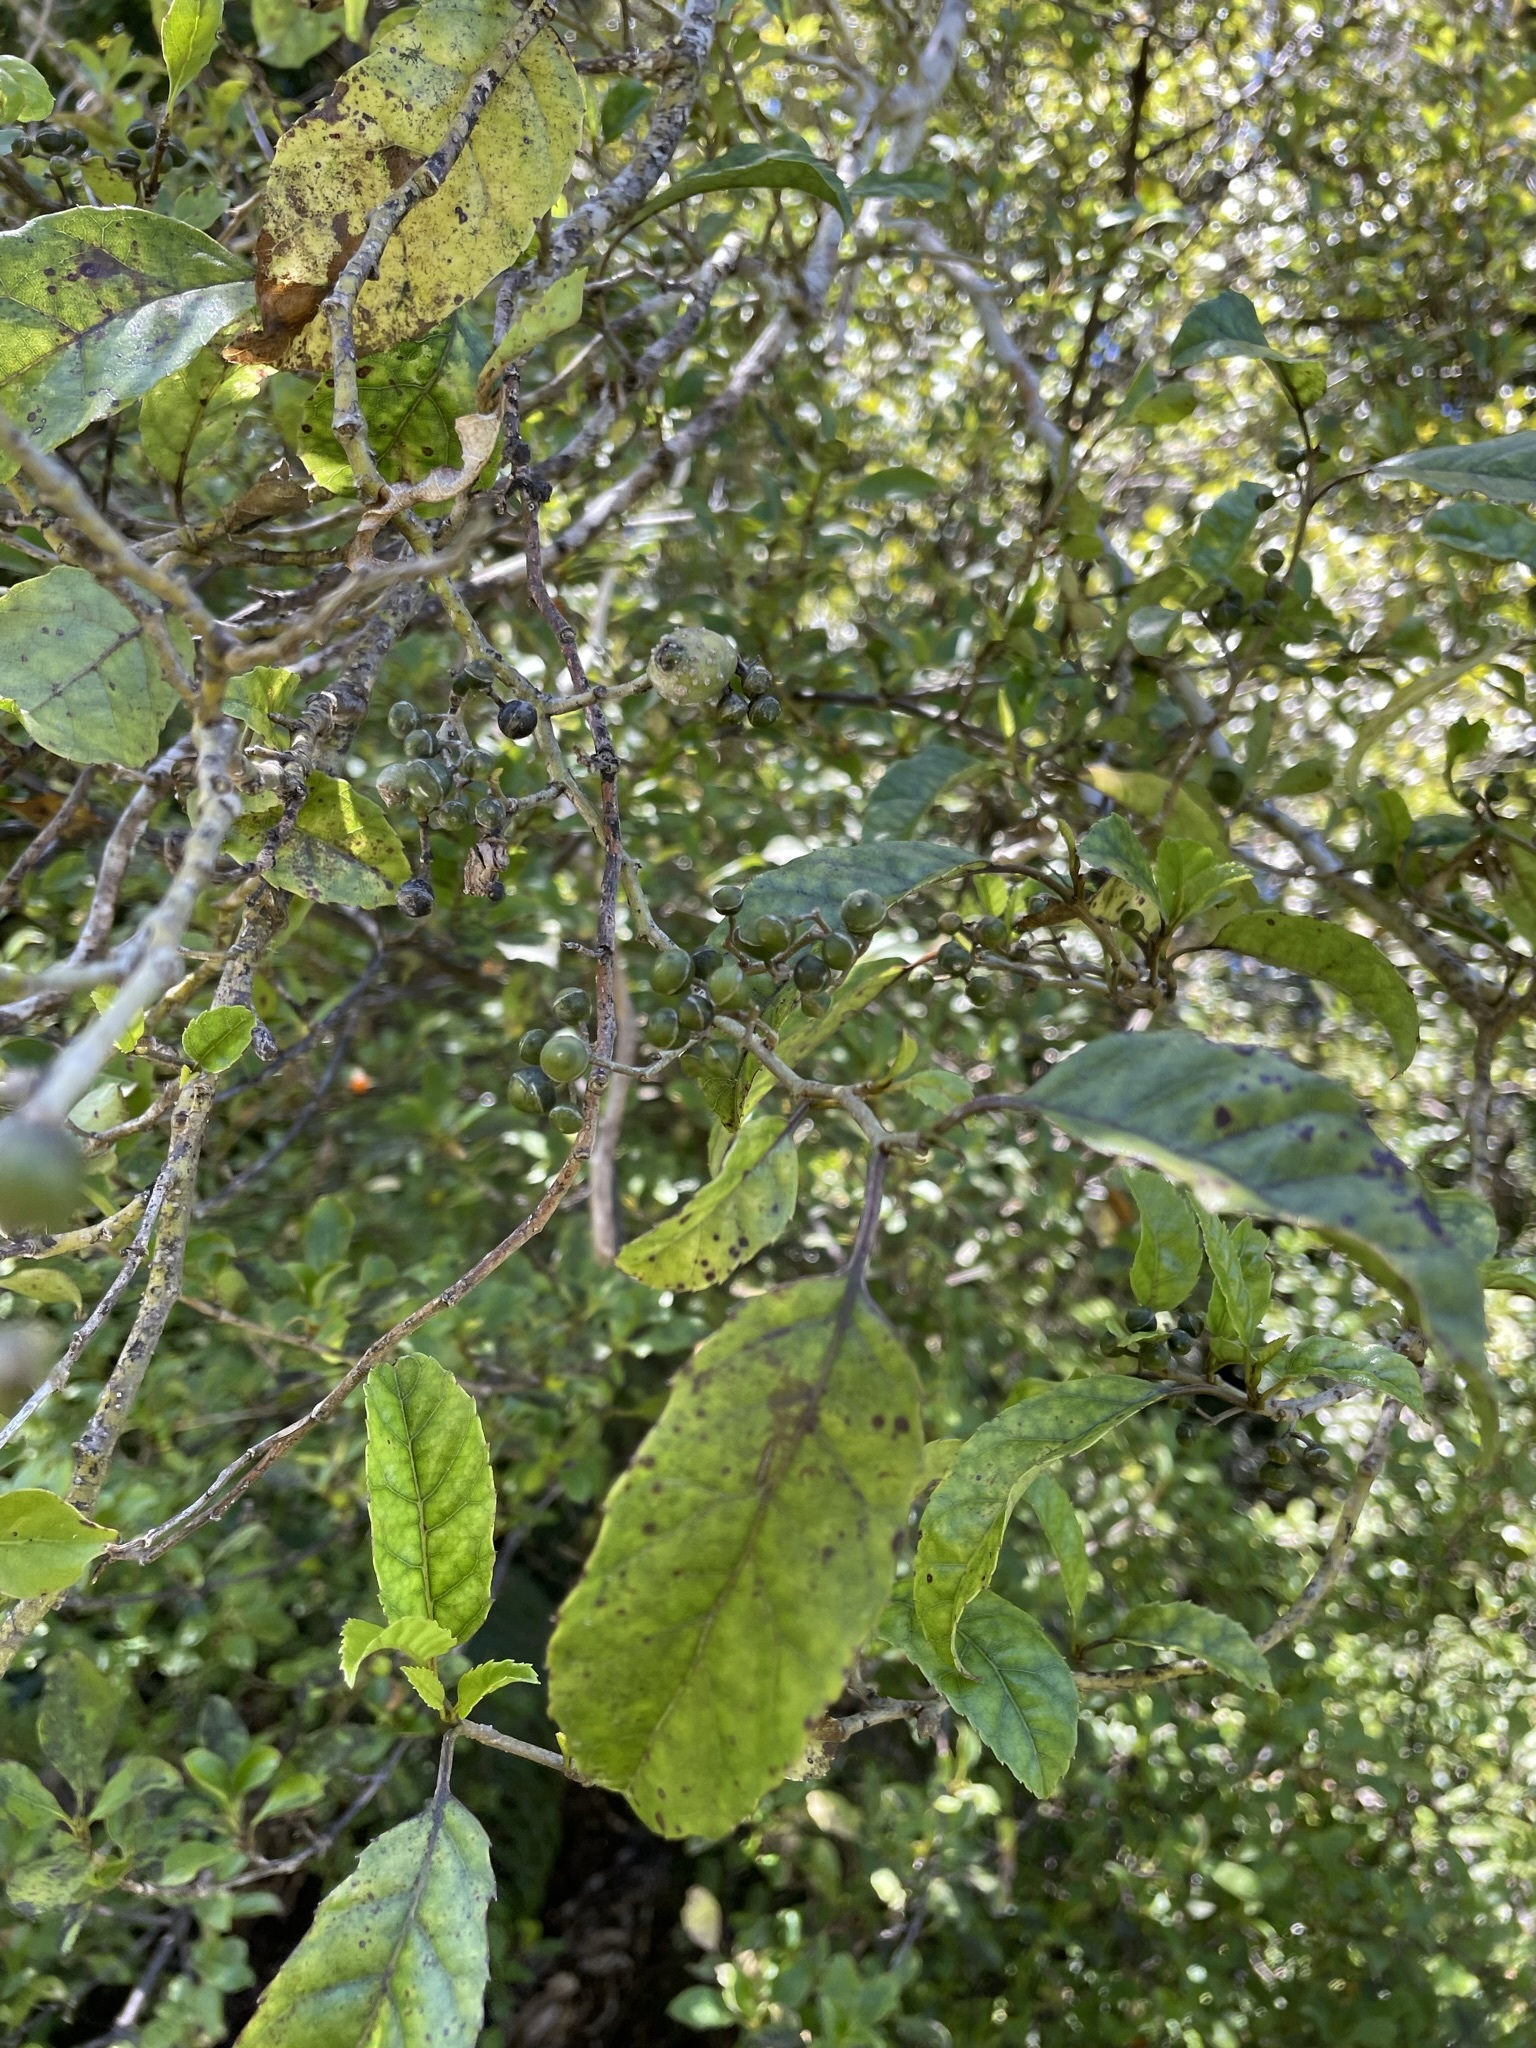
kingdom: Plantae
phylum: Tracheophyta
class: Magnoliopsida
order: Asterales
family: Rousseaceae
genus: Carpodetus
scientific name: Carpodetus serratus
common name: White mapau
